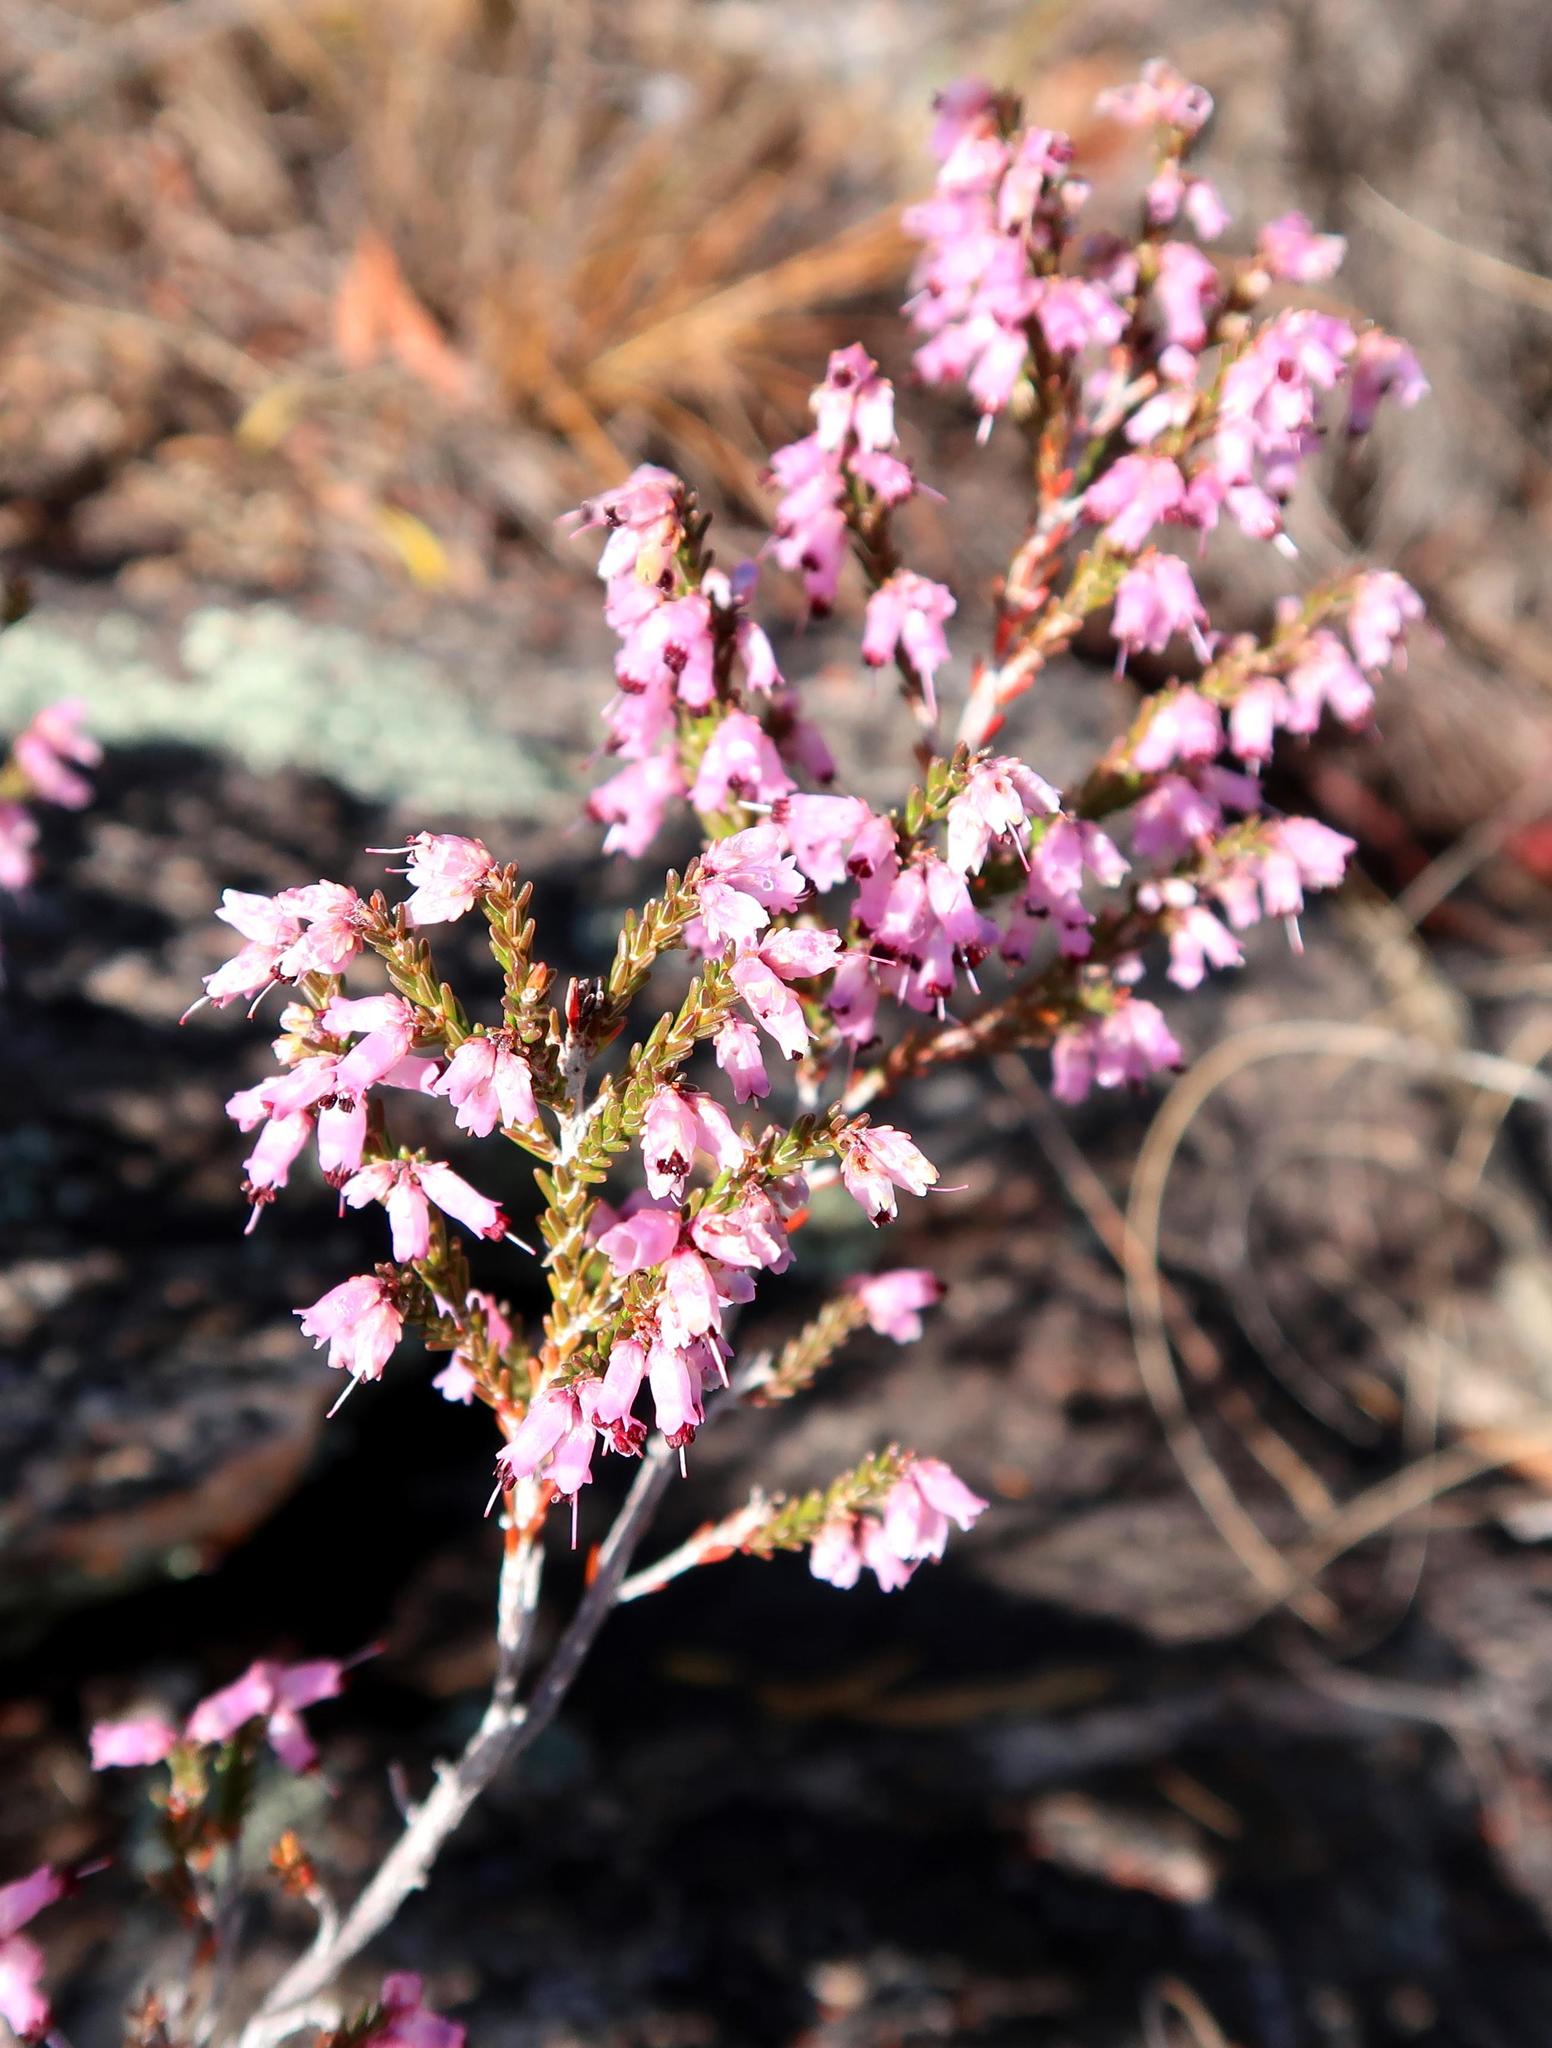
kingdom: Plantae
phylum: Tracheophyta
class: Magnoliopsida
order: Ericales
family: Ericaceae
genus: Erica
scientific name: Erica vlokii
